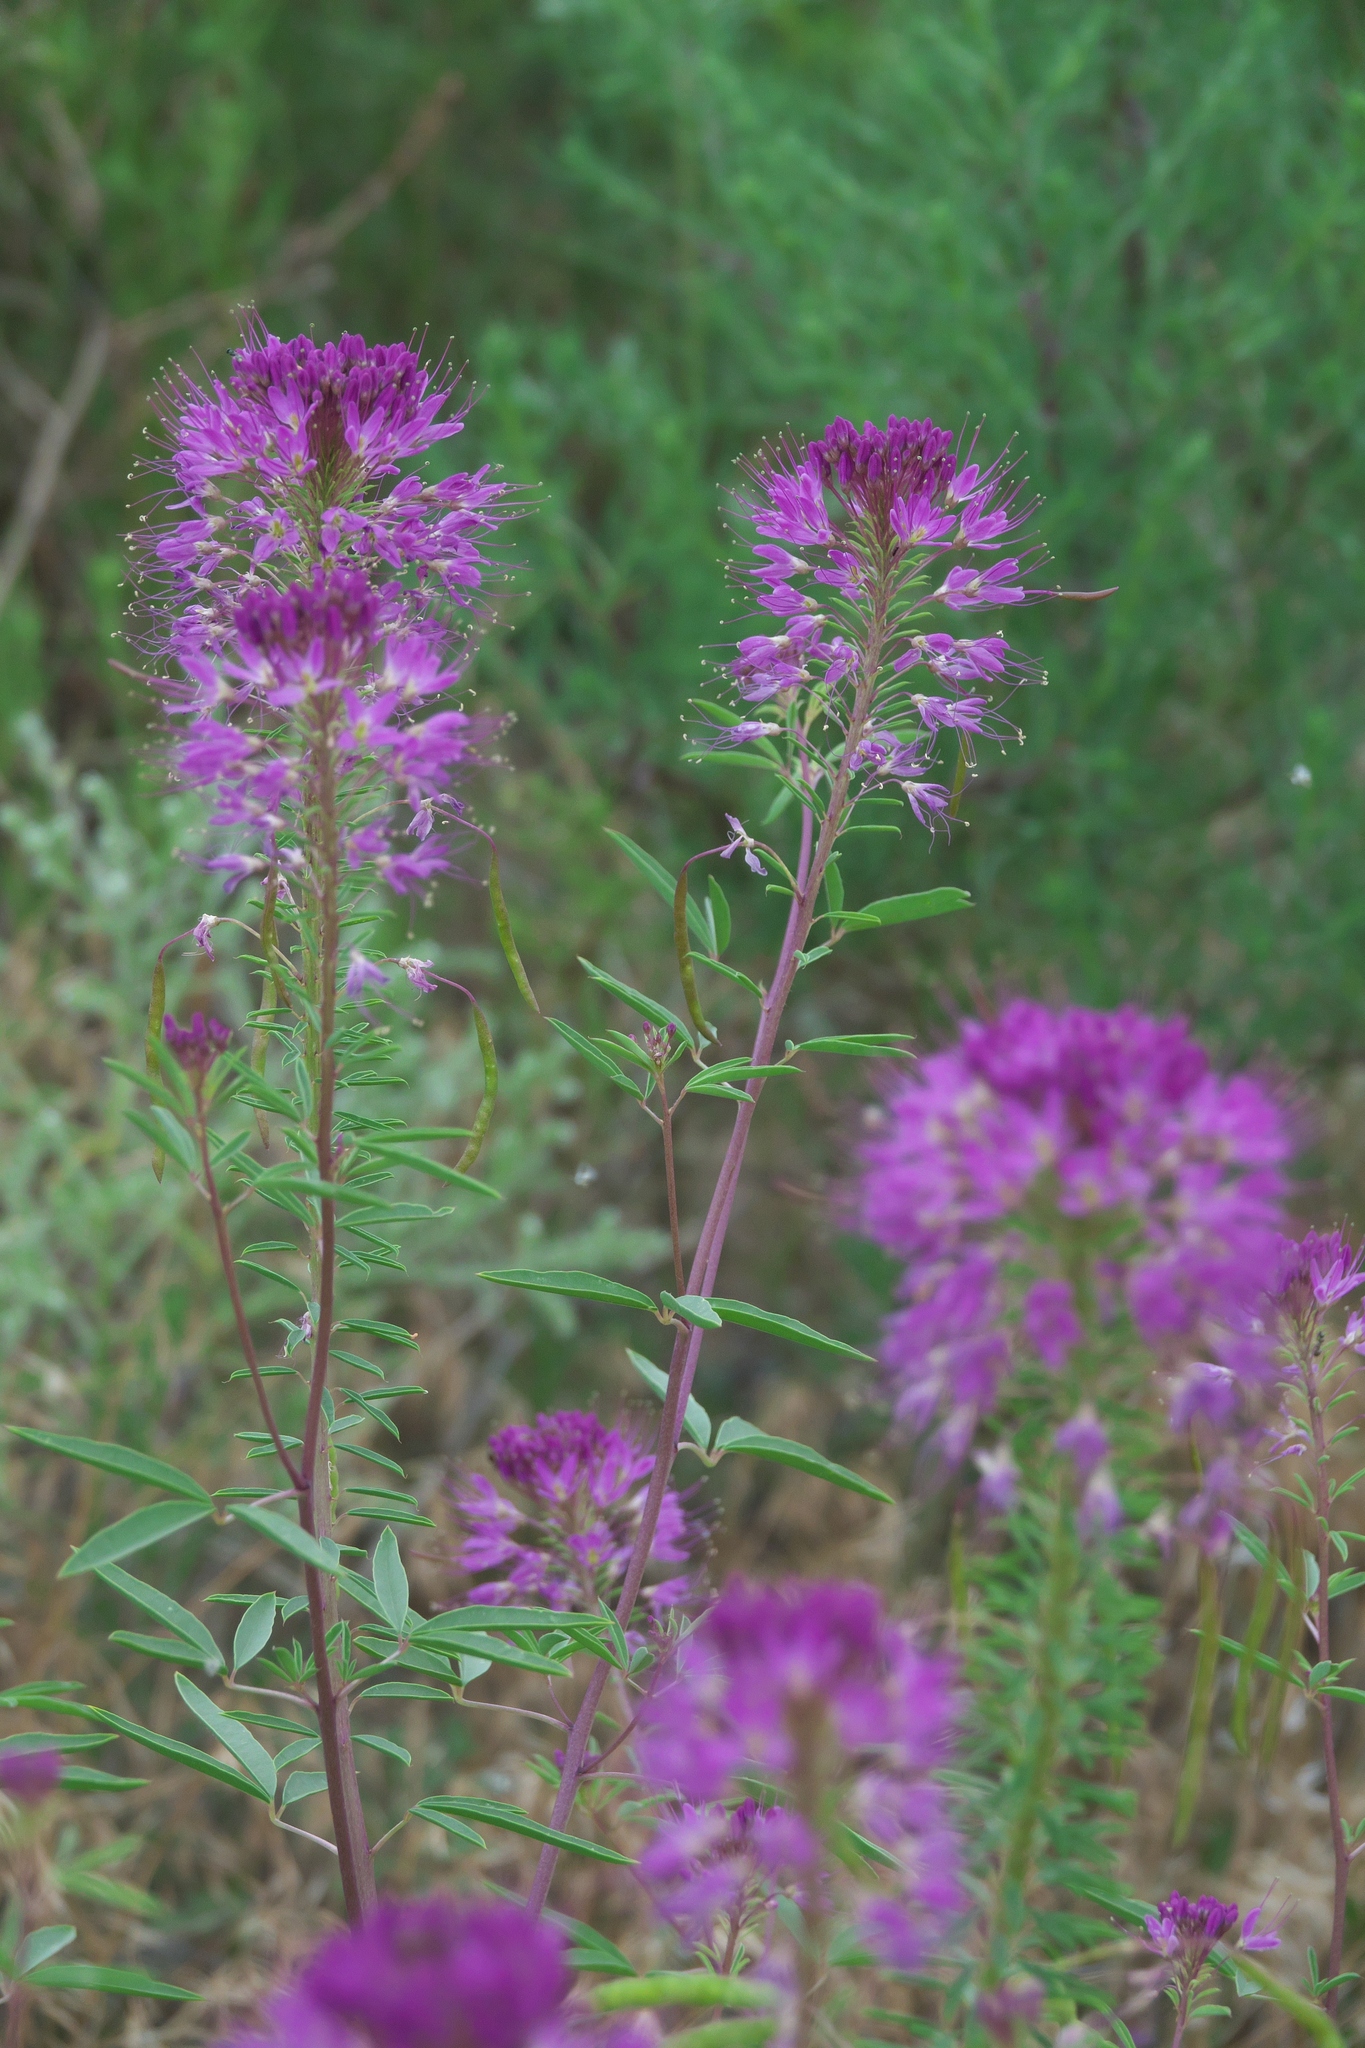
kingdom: Plantae
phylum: Tracheophyta
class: Magnoliopsida
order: Brassicales
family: Cleomaceae
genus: Cleomella
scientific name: Cleomella serrulata
